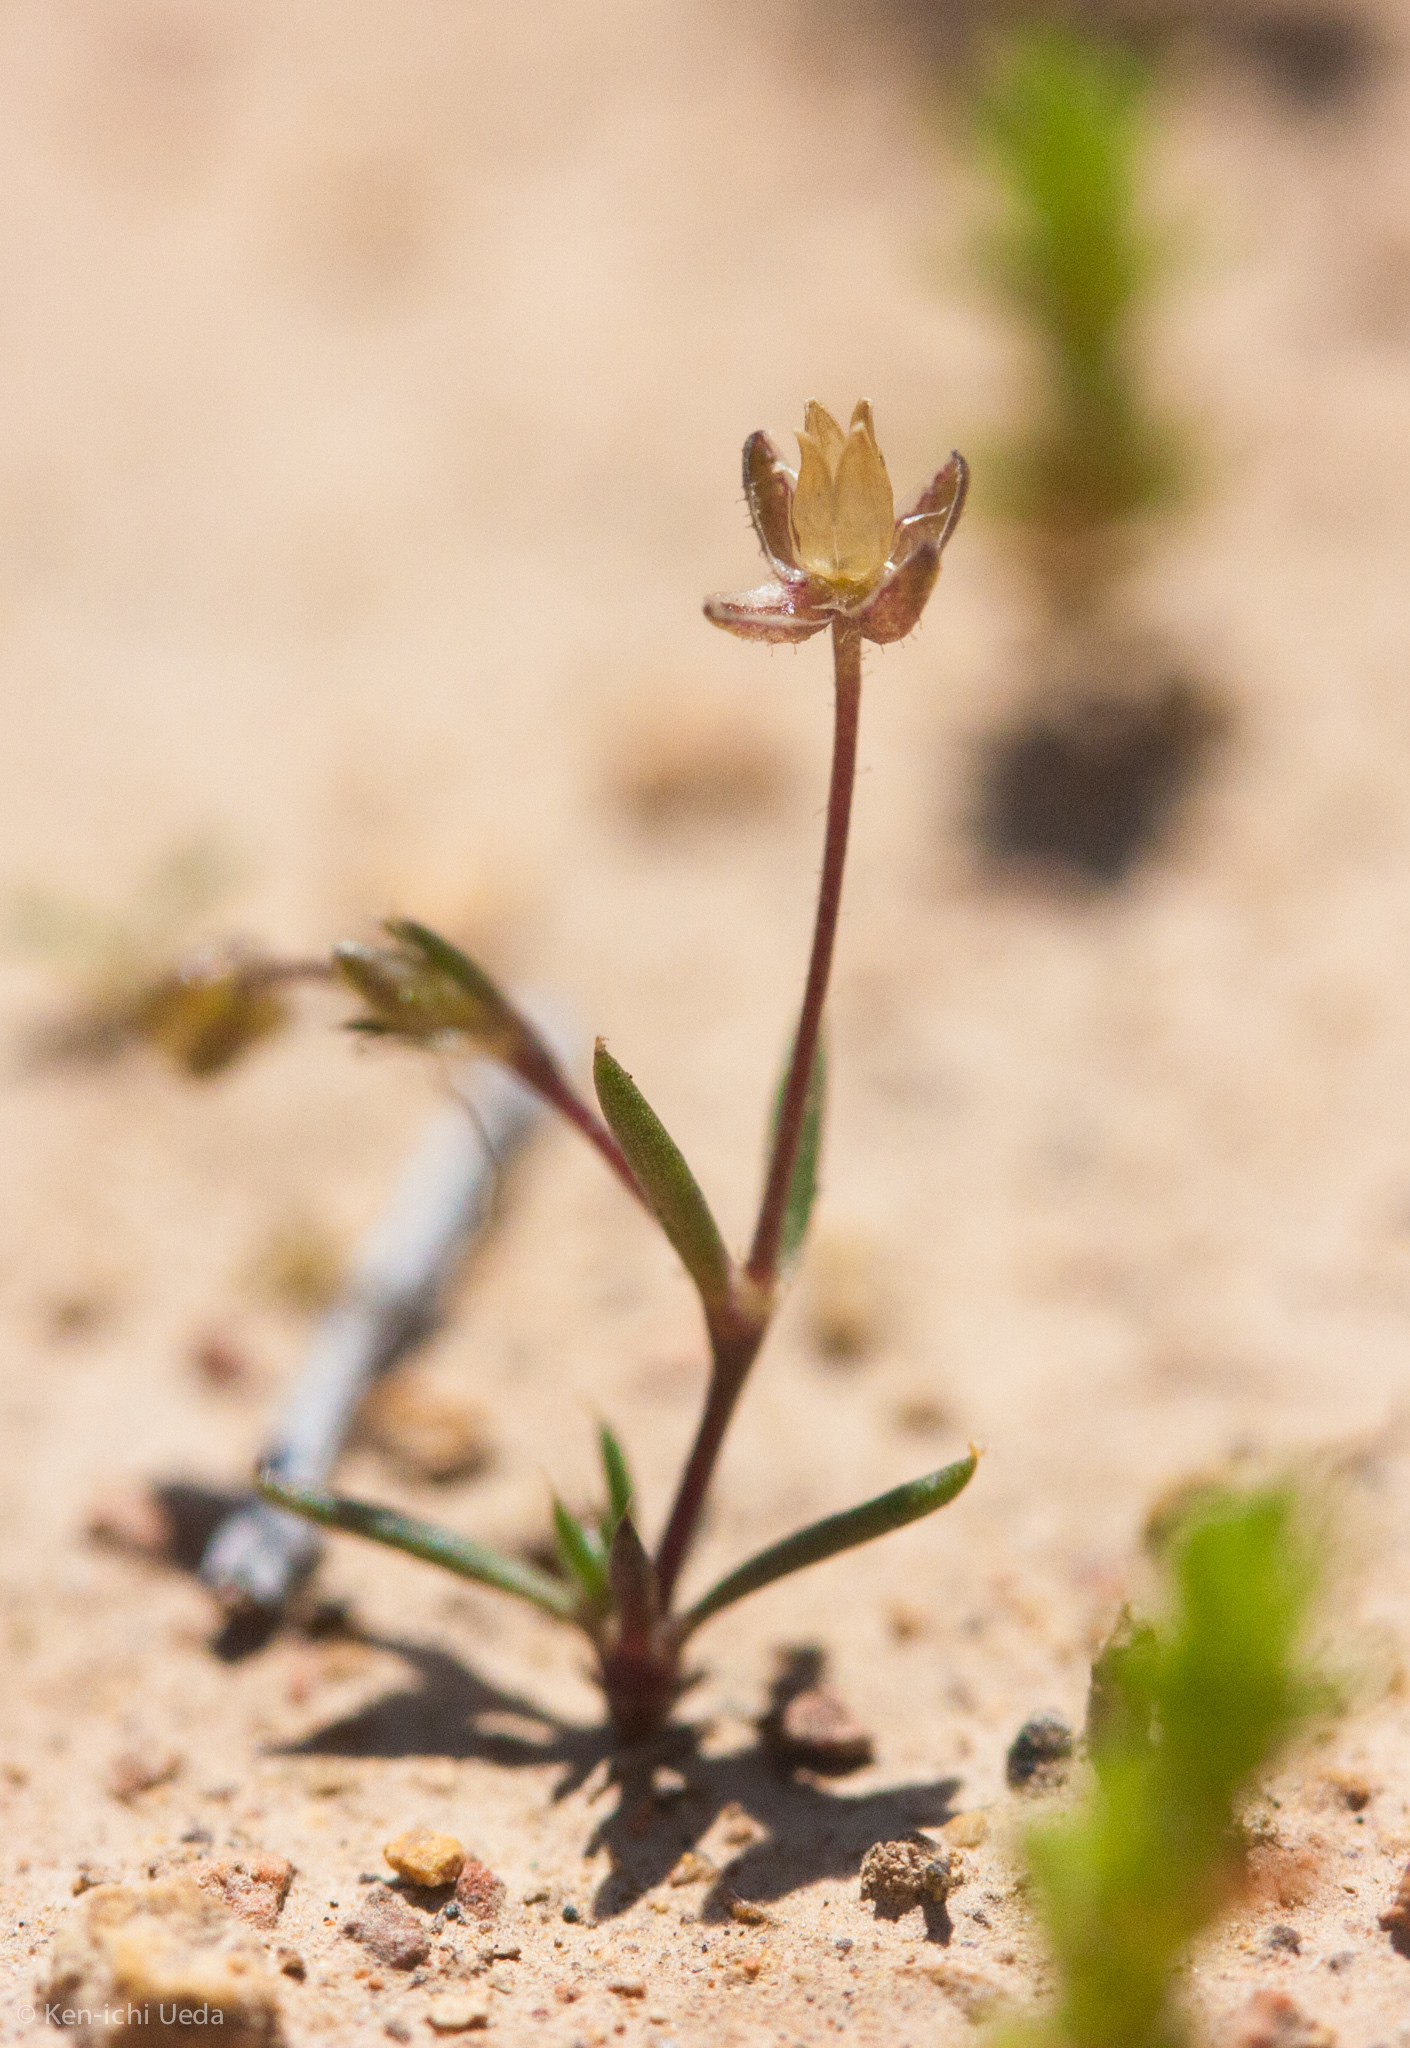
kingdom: Plantae
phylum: Tracheophyta
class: Magnoliopsida
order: Caryophyllales
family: Caryophyllaceae
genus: Sagina
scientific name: Sagina apetala
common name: Annual pearlwort
